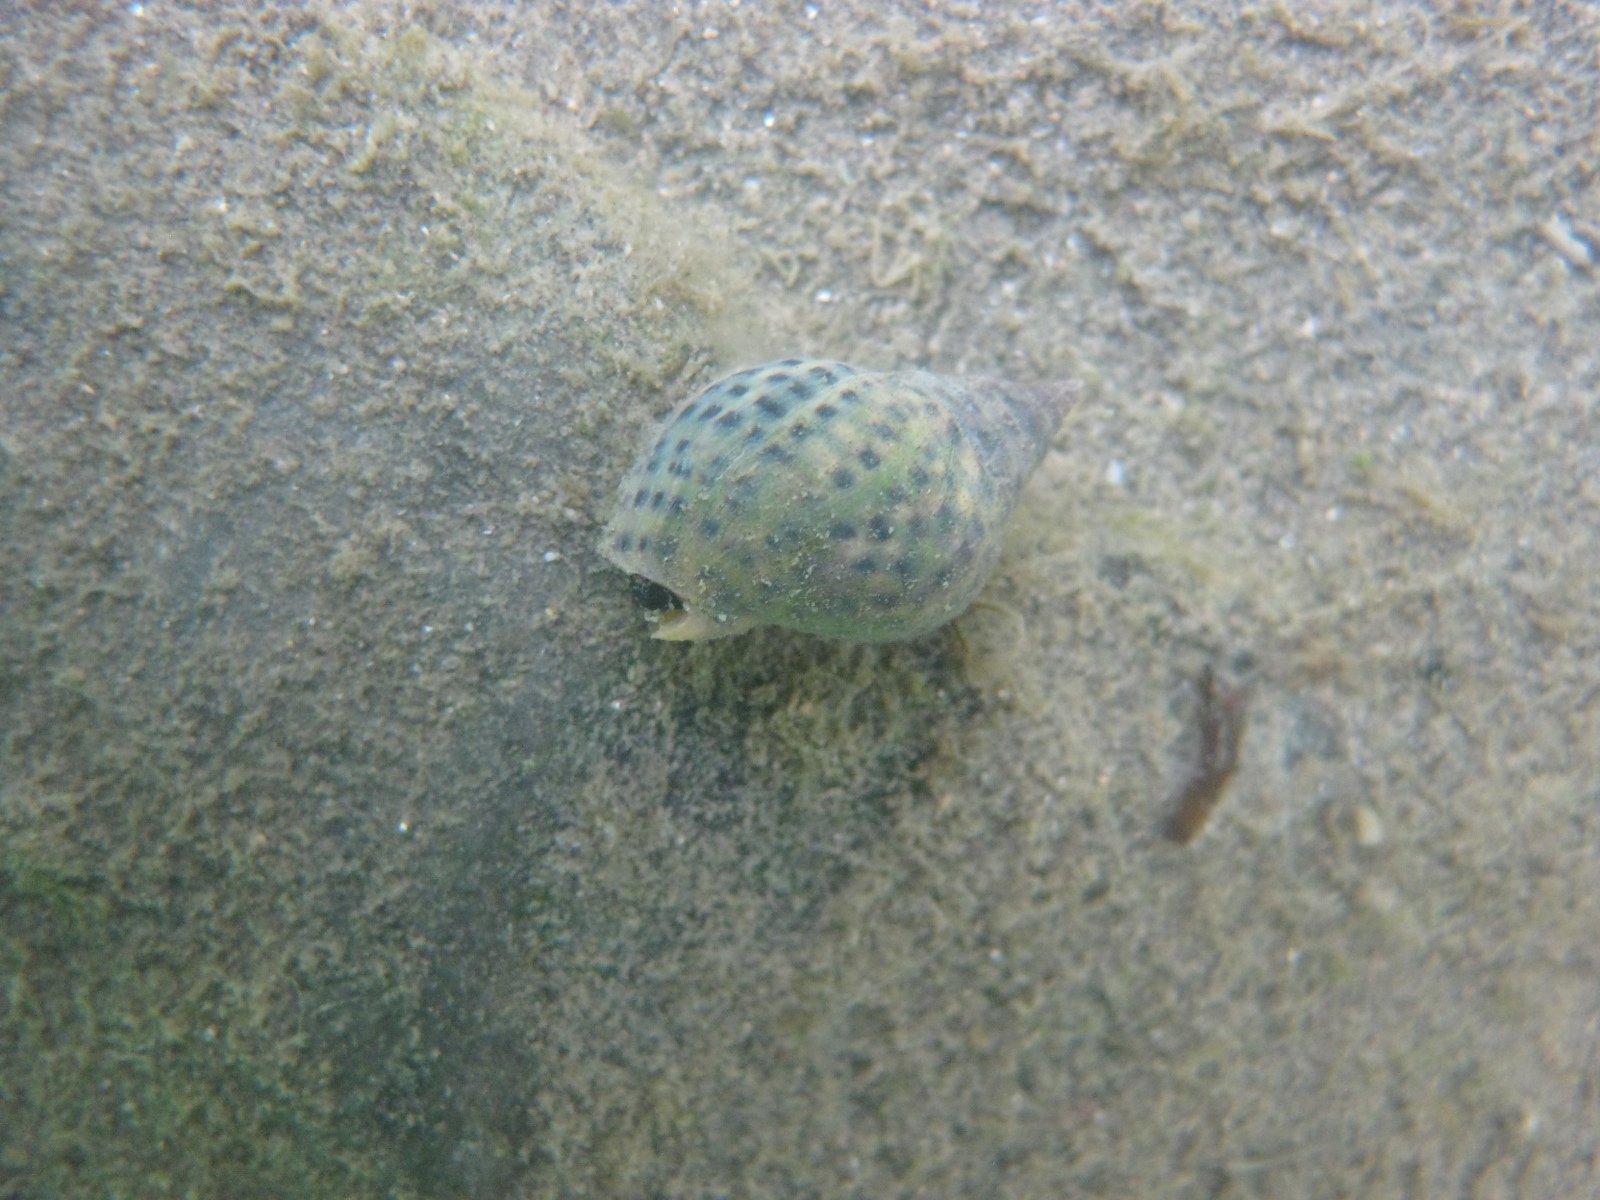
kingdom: Animalia
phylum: Mollusca
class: Gastropoda
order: Neogastropoda
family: Cominellidae
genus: Cominella
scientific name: Cominella maculosa
